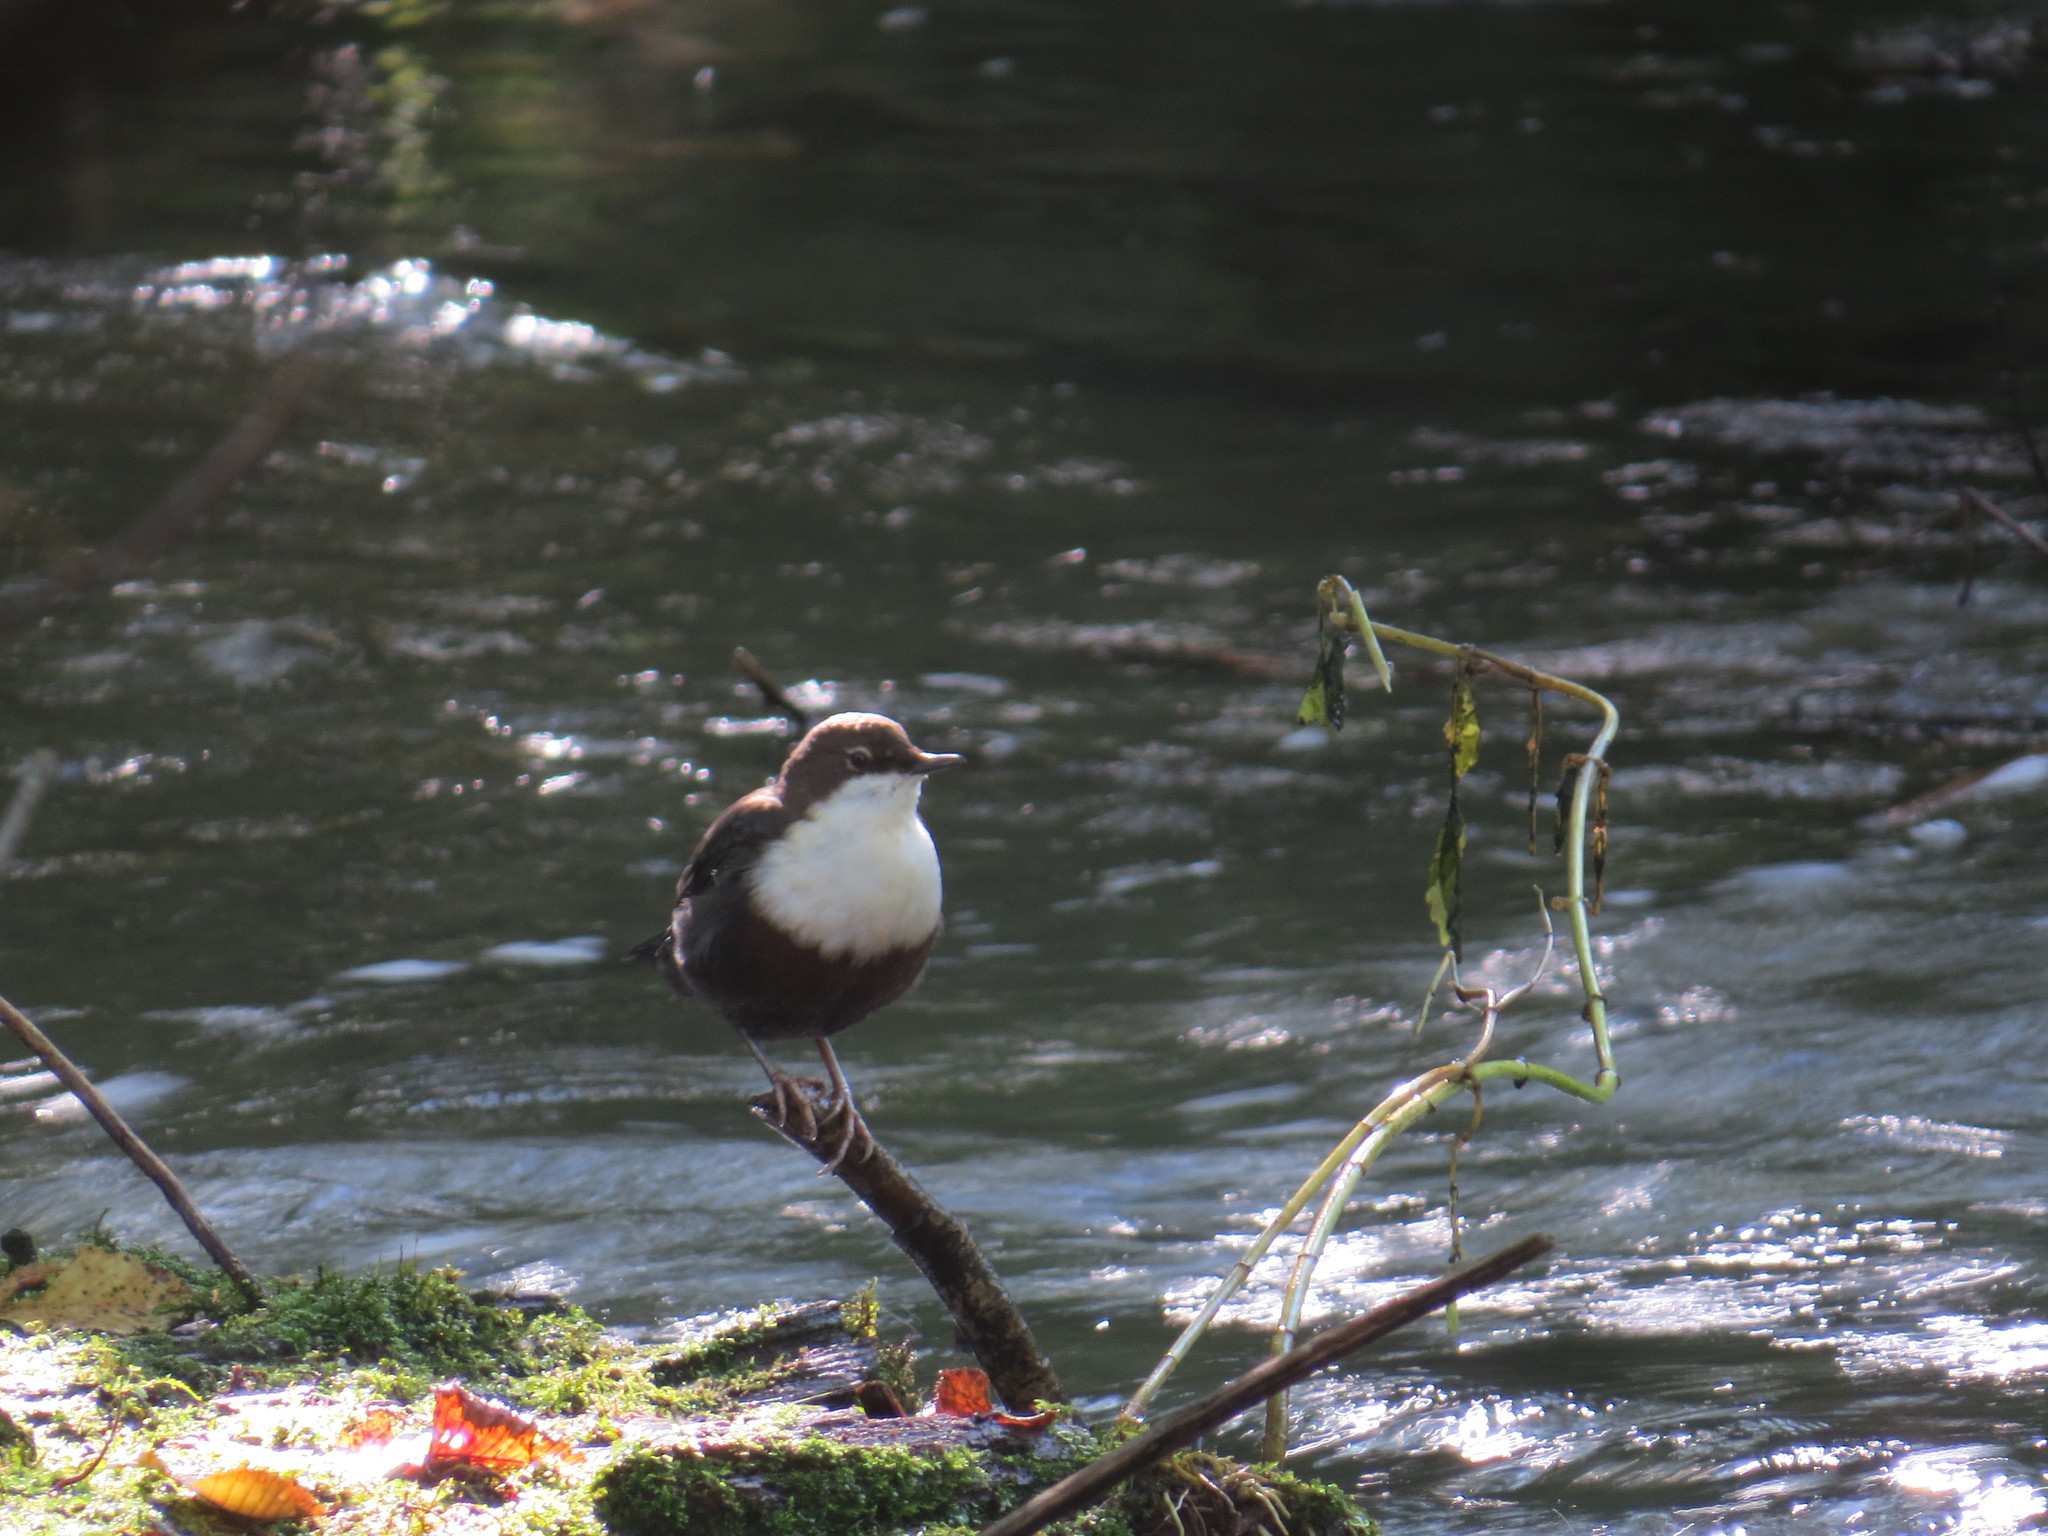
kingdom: Animalia
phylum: Chordata
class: Aves
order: Passeriformes
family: Cinclidae
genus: Cinclus
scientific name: Cinclus cinclus
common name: White-throated dipper
